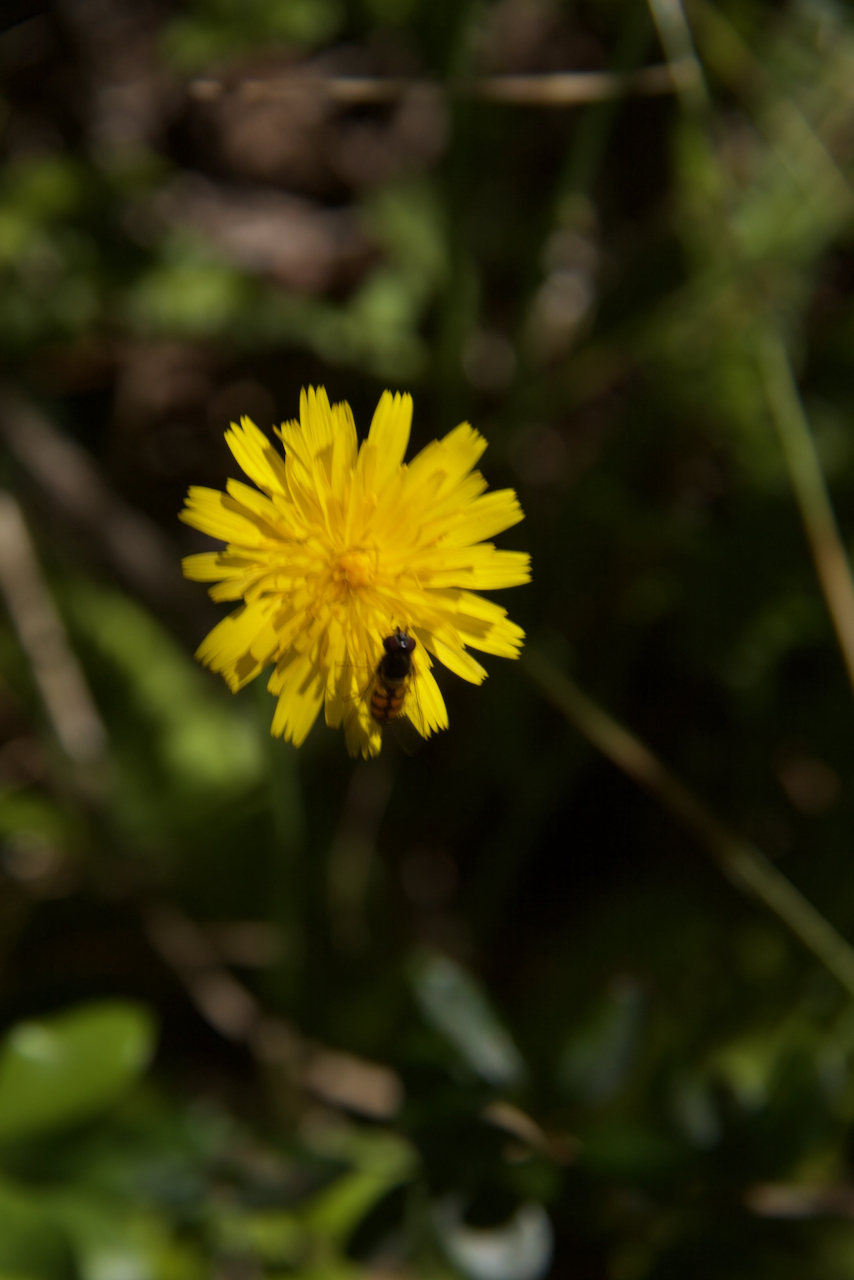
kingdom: Animalia
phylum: Arthropoda
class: Insecta
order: Diptera
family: Syrphidae
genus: Syrphus
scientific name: Syrphus octomaculatus
